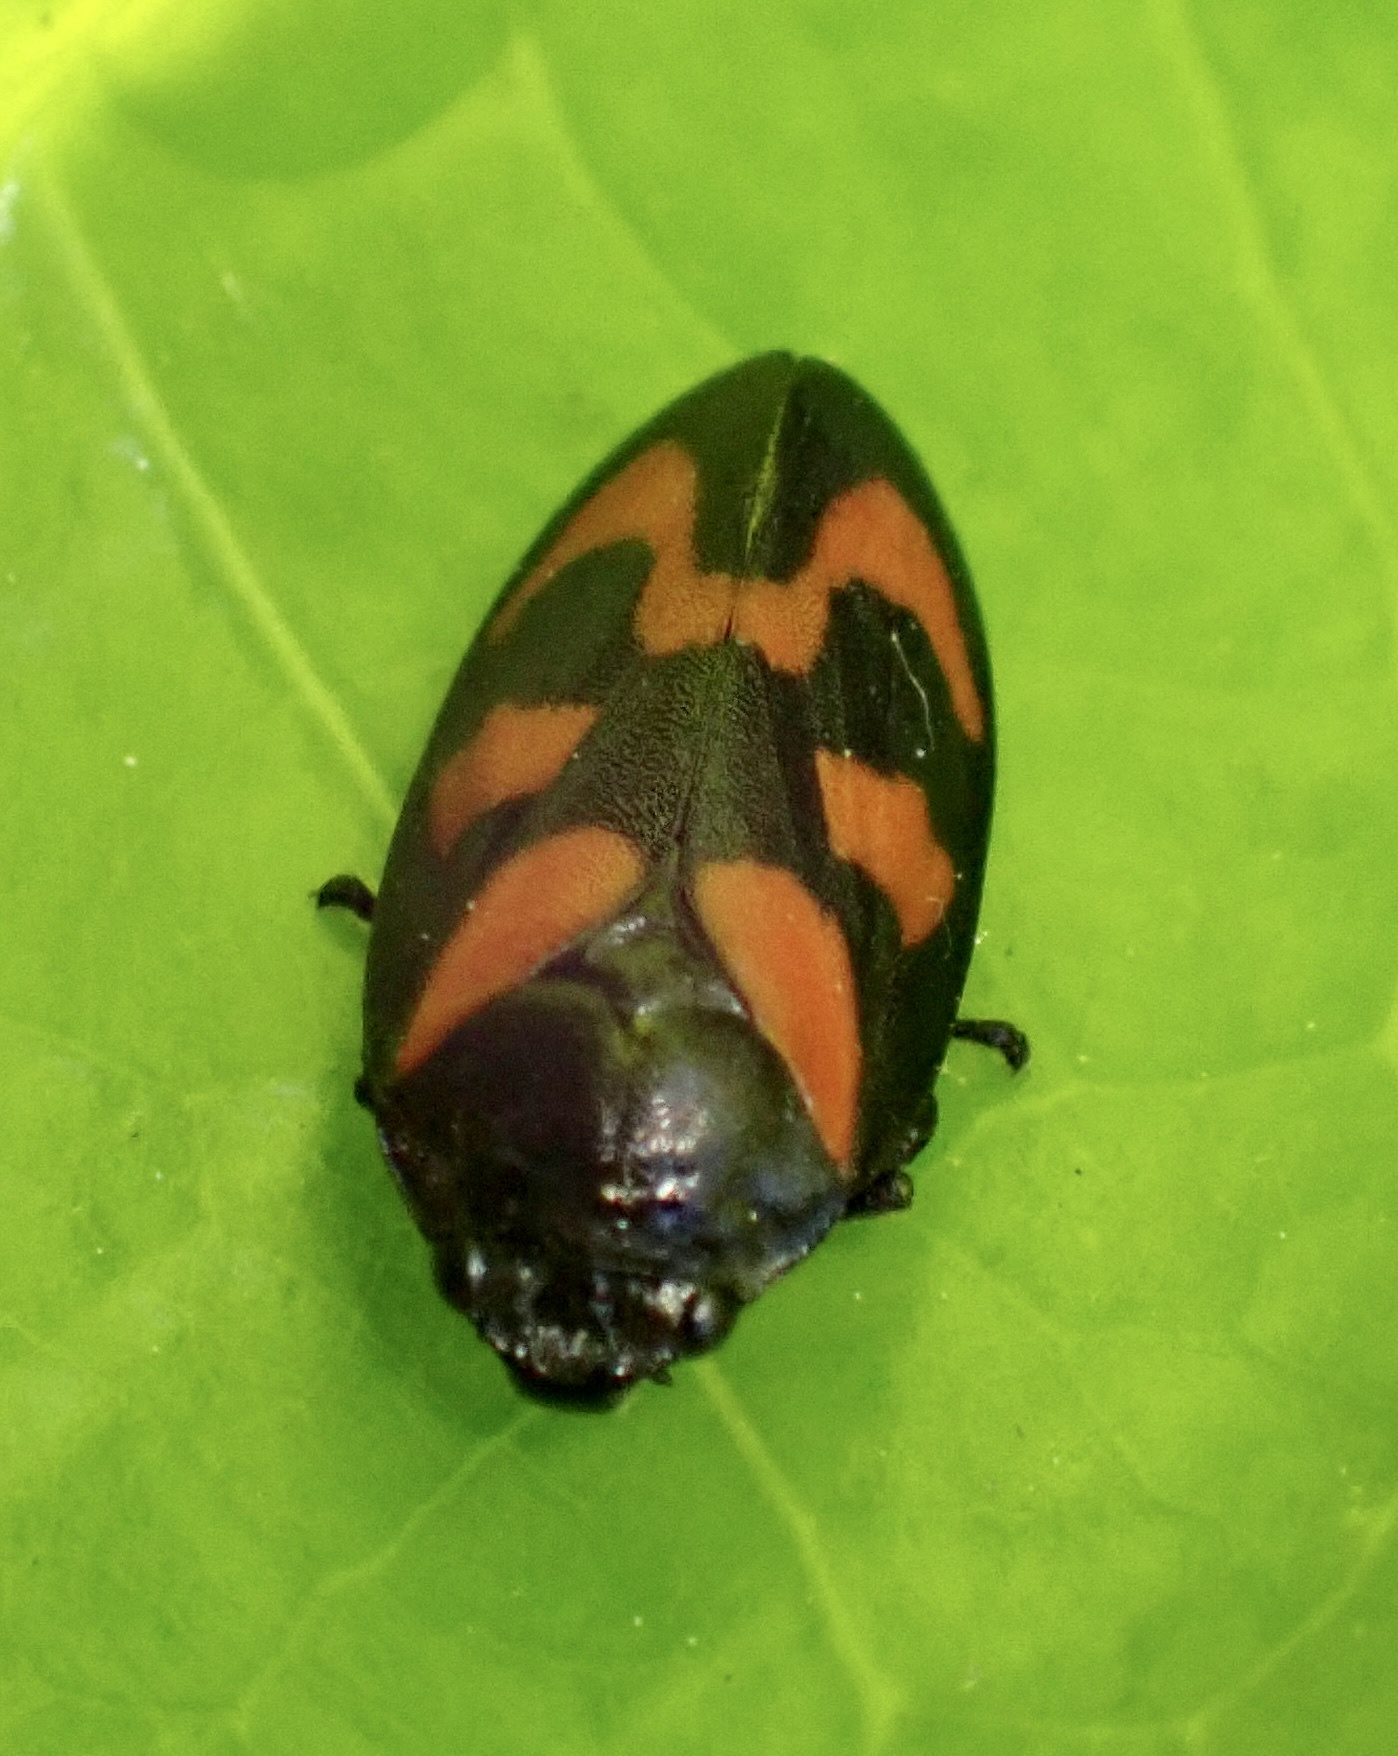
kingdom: Animalia
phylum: Arthropoda
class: Insecta
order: Hemiptera
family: Cercopidae
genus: Cercopis
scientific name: Cercopis vulnerata
